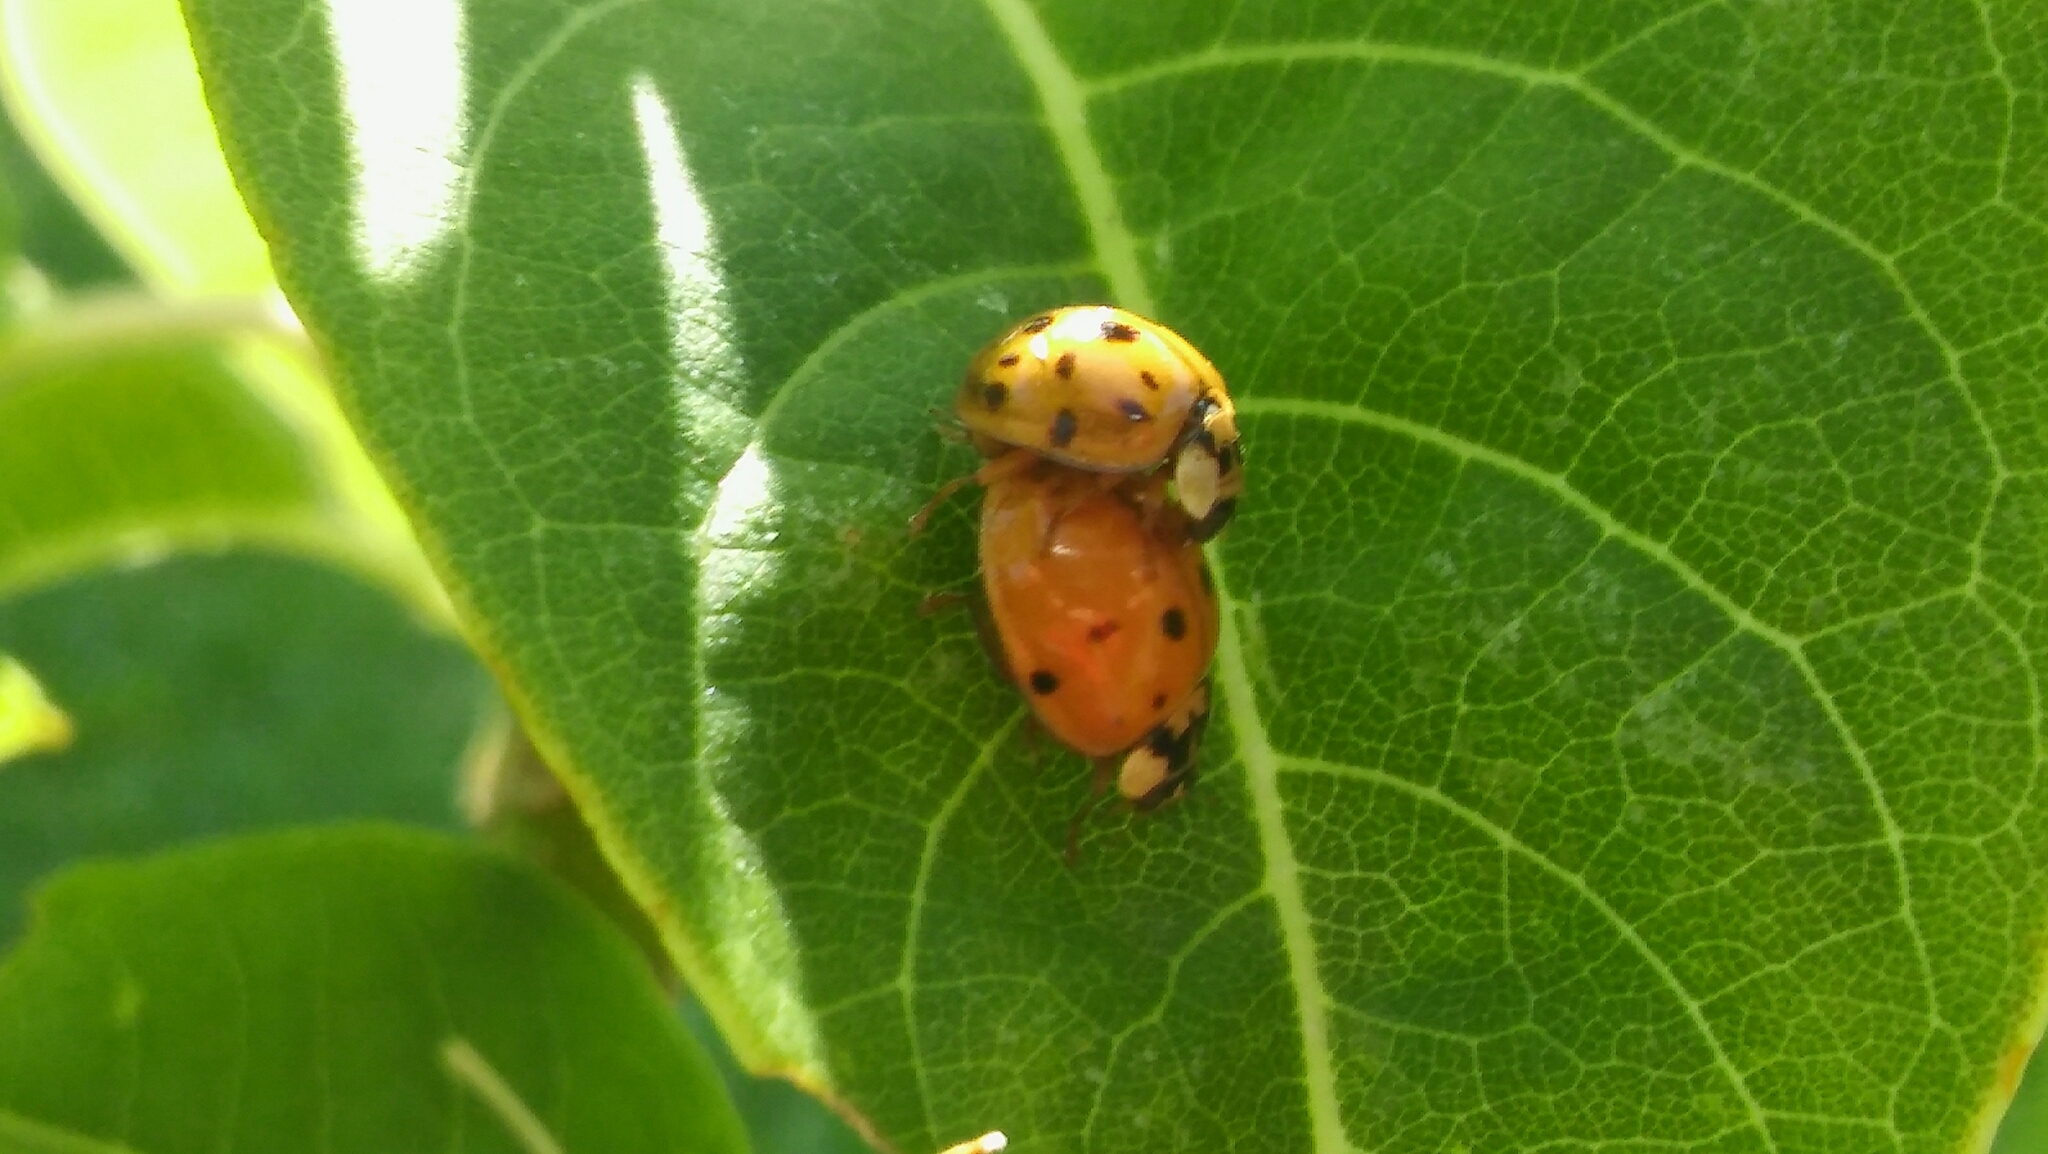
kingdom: Animalia
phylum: Arthropoda
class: Insecta
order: Coleoptera
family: Coccinellidae
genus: Harmonia
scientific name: Harmonia axyridis
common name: Harlequin ladybird
